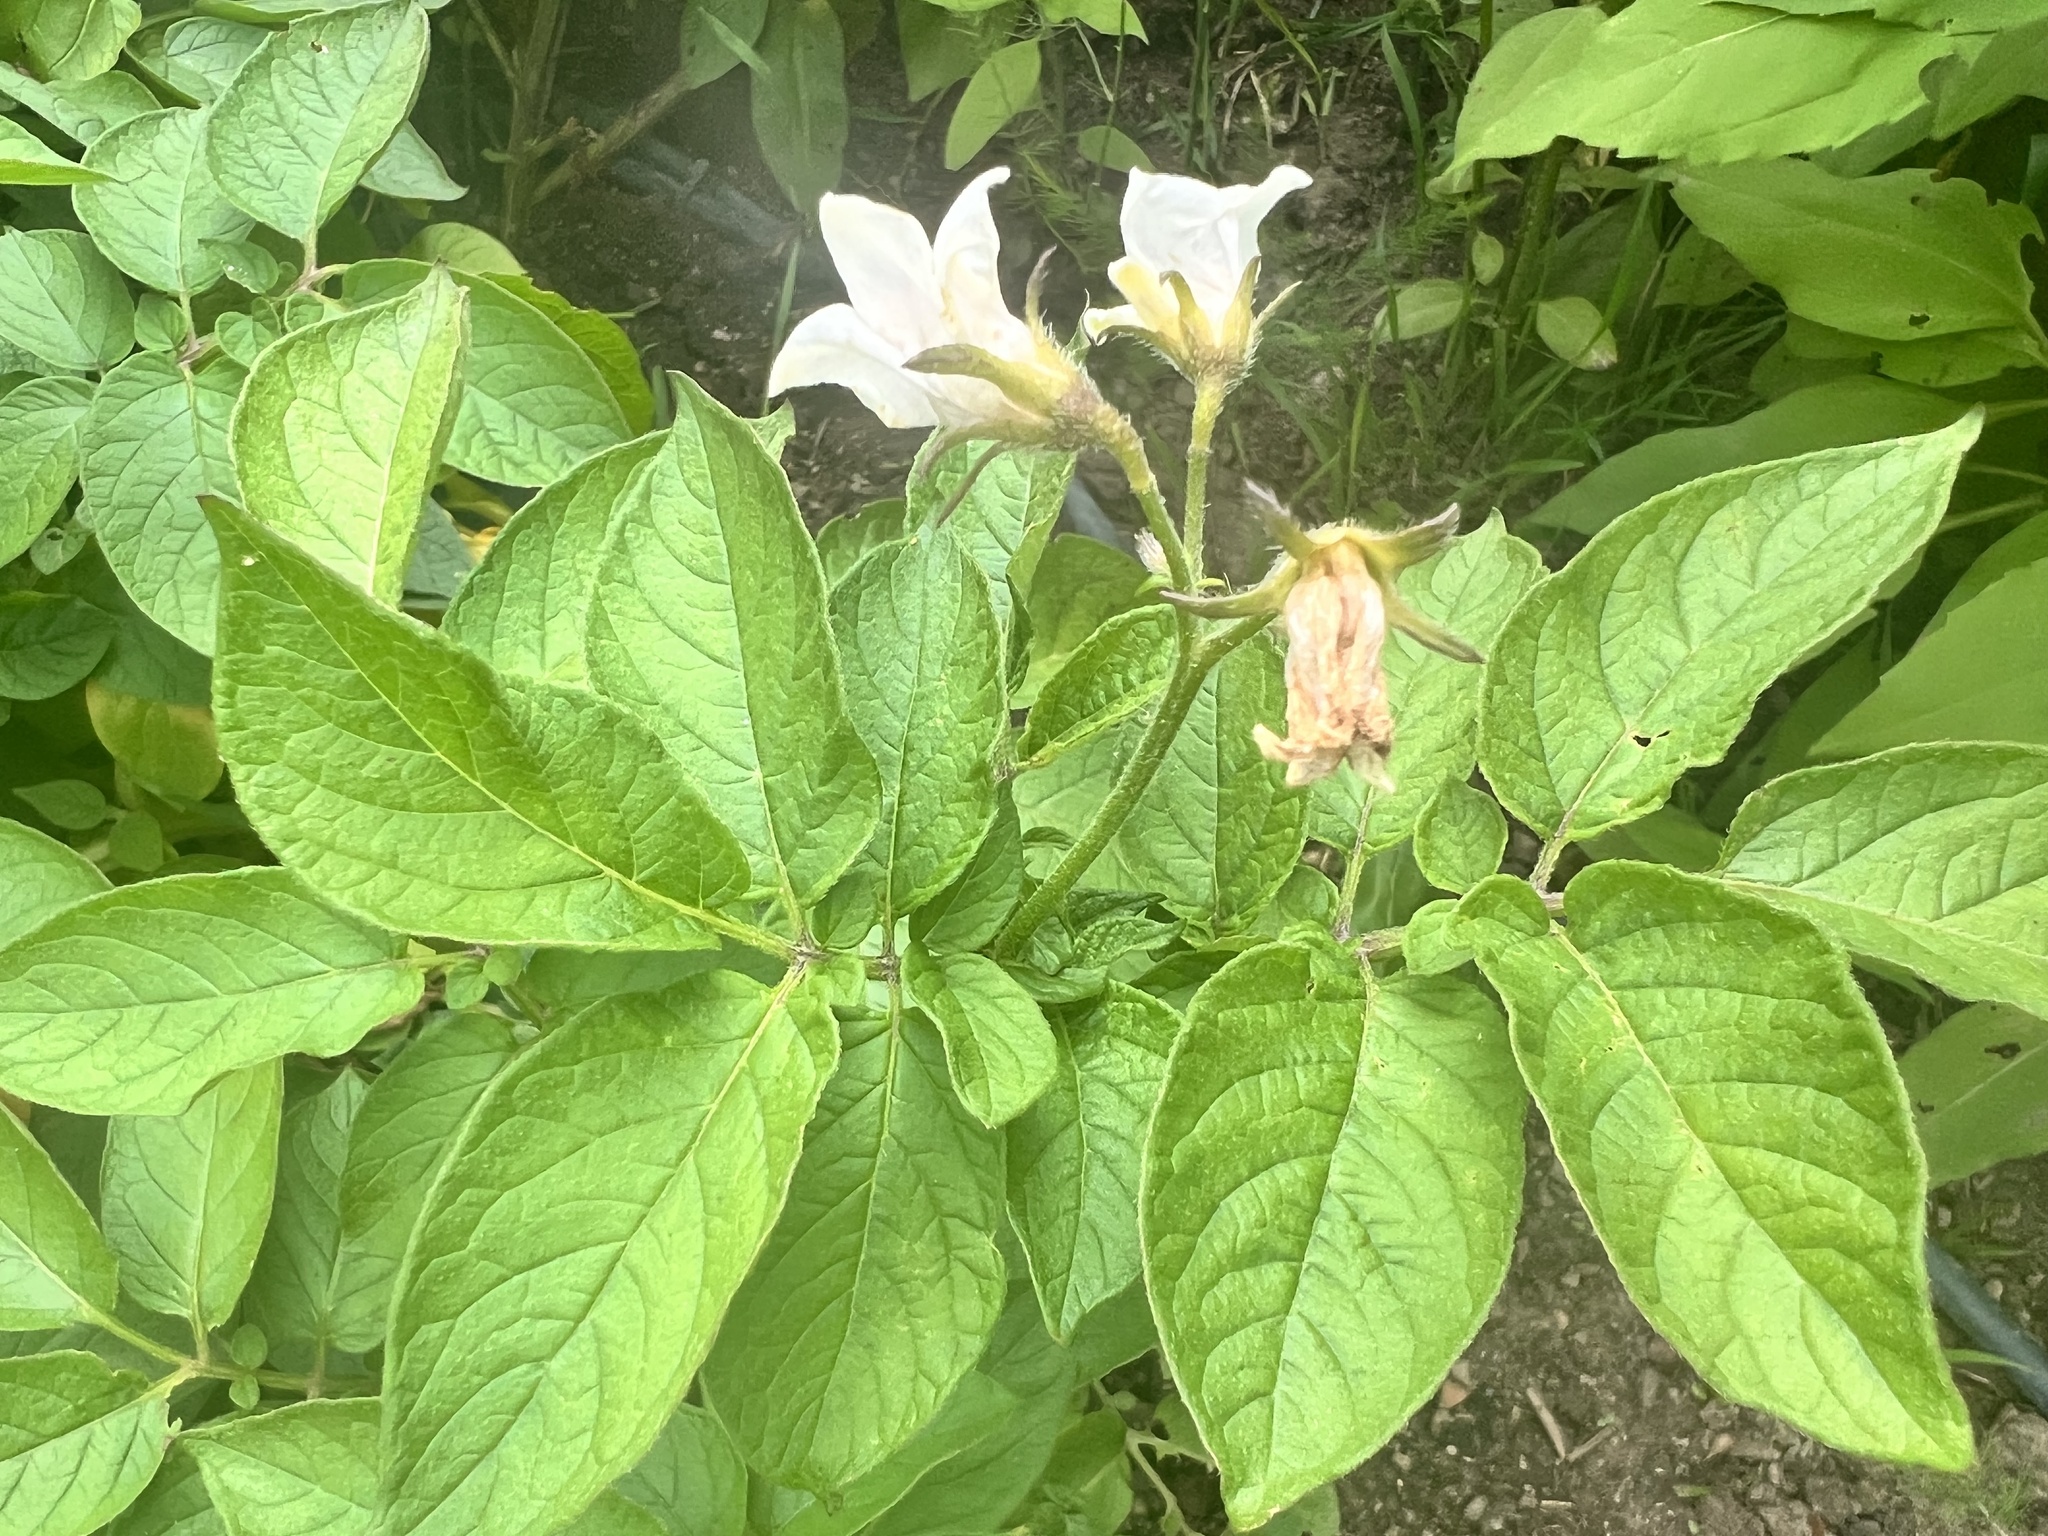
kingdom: Plantae
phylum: Tracheophyta
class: Magnoliopsida
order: Solanales
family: Solanaceae
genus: Solanum
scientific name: Solanum tuberosum
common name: Potato
